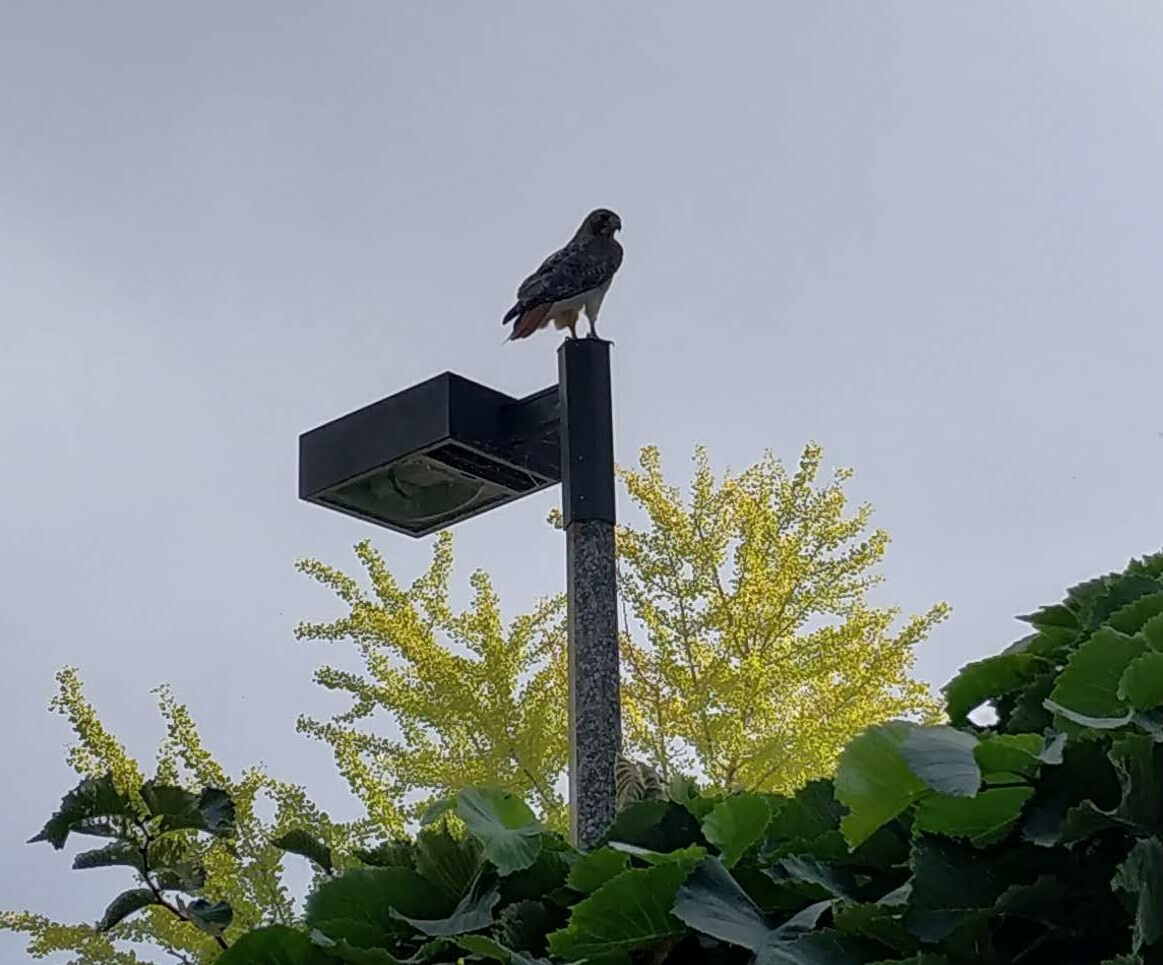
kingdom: Animalia
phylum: Chordata
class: Aves
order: Accipitriformes
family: Accipitridae
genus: Buteo
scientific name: Buteo jamaicensis
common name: Red-tailed hawk
